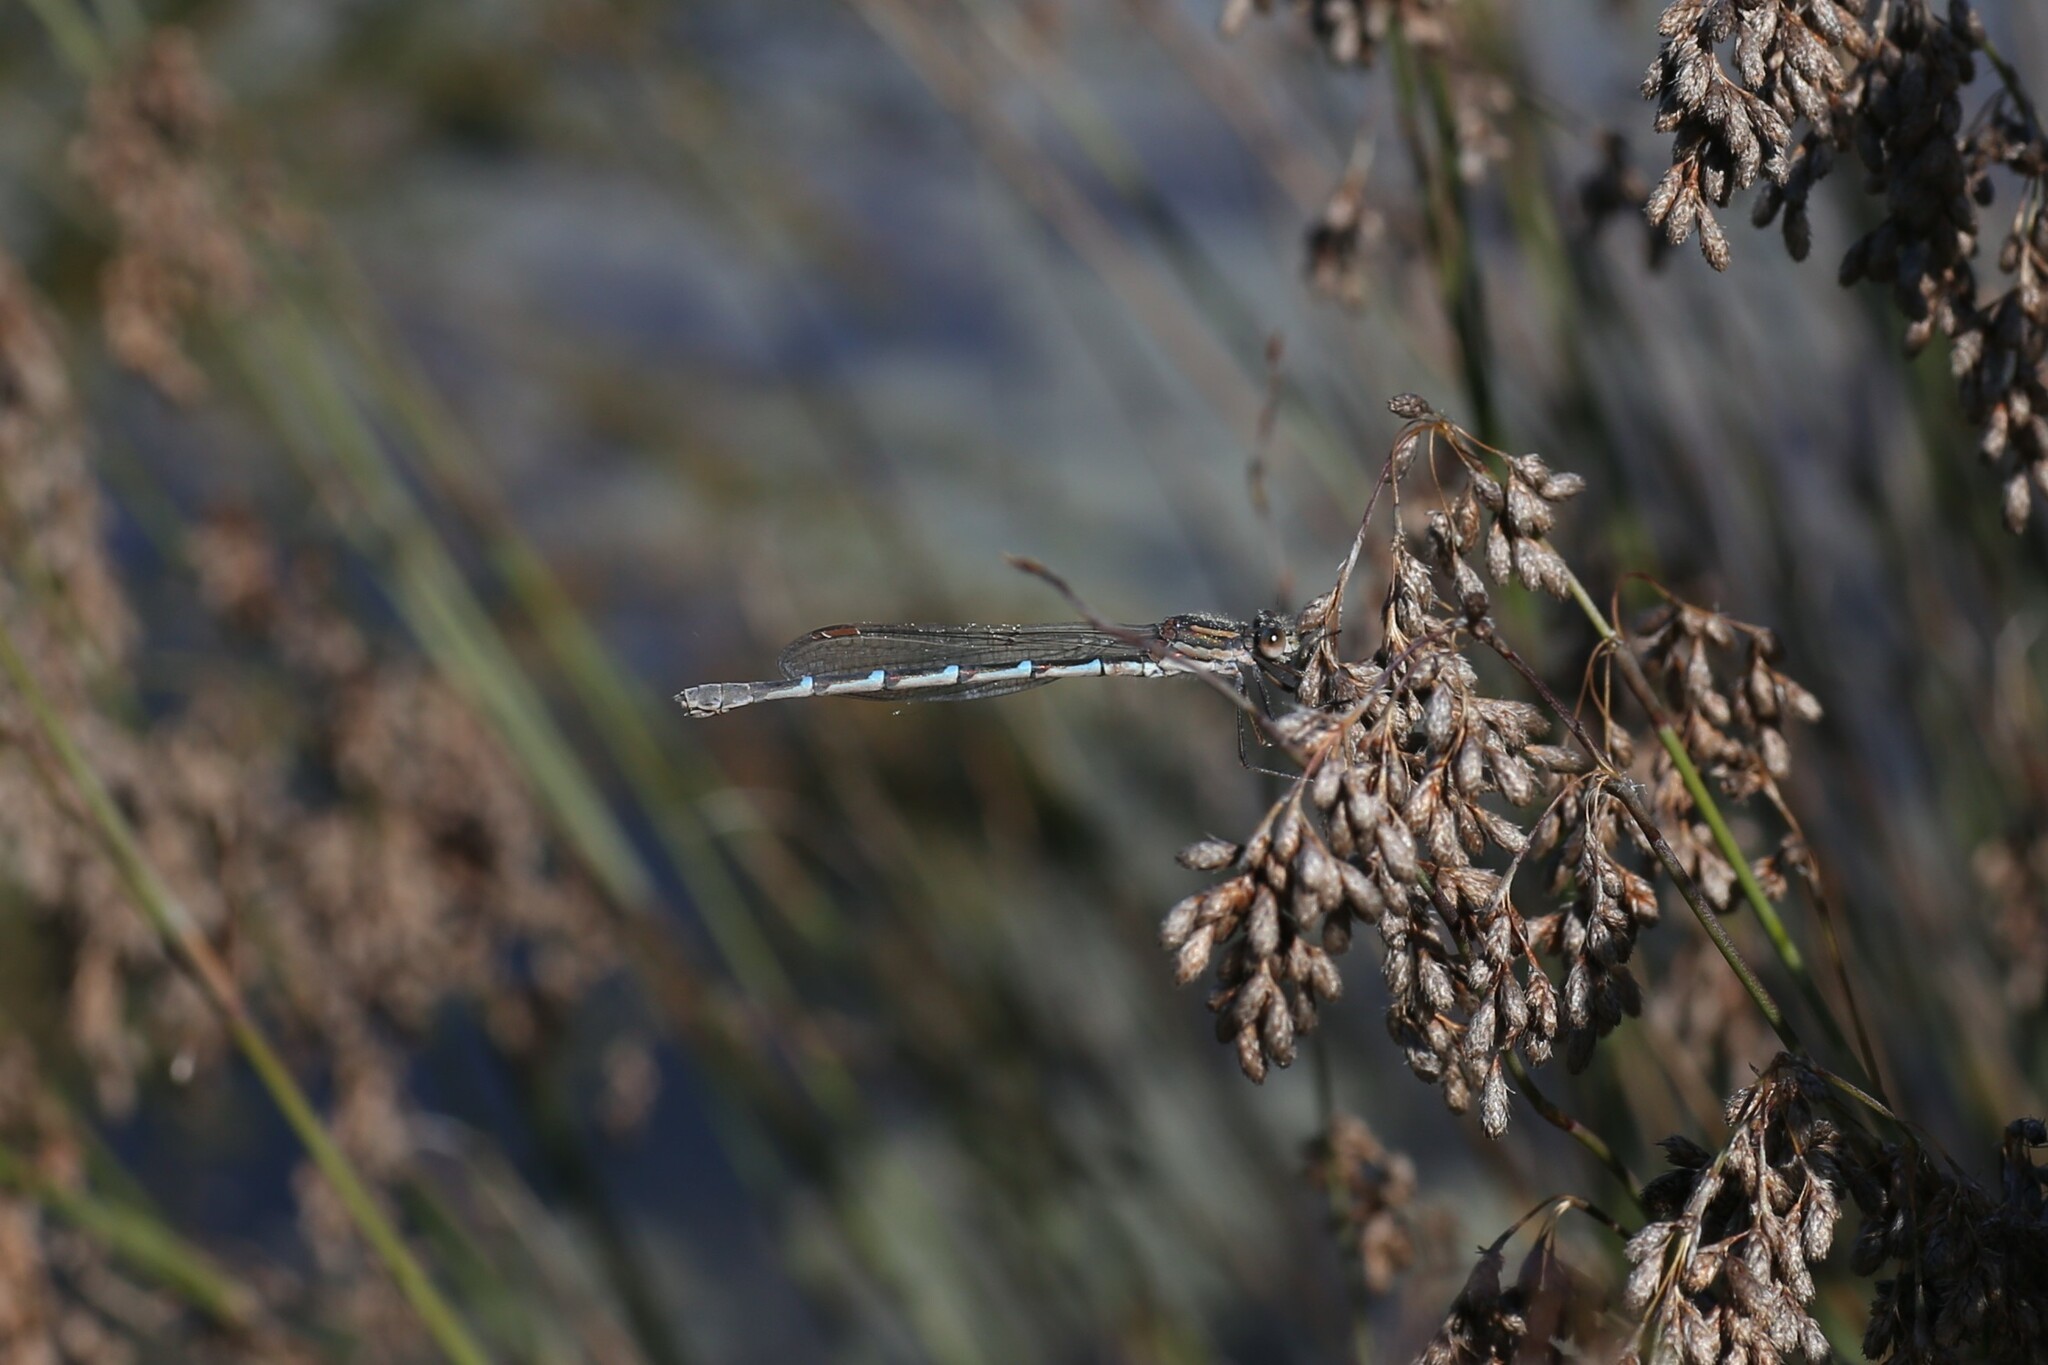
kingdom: Animalia
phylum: Arthropoda
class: Insecta
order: Odonata
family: Lestidae
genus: Austrolestes
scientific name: Austrolestes annulosus
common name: Blue ringtail
